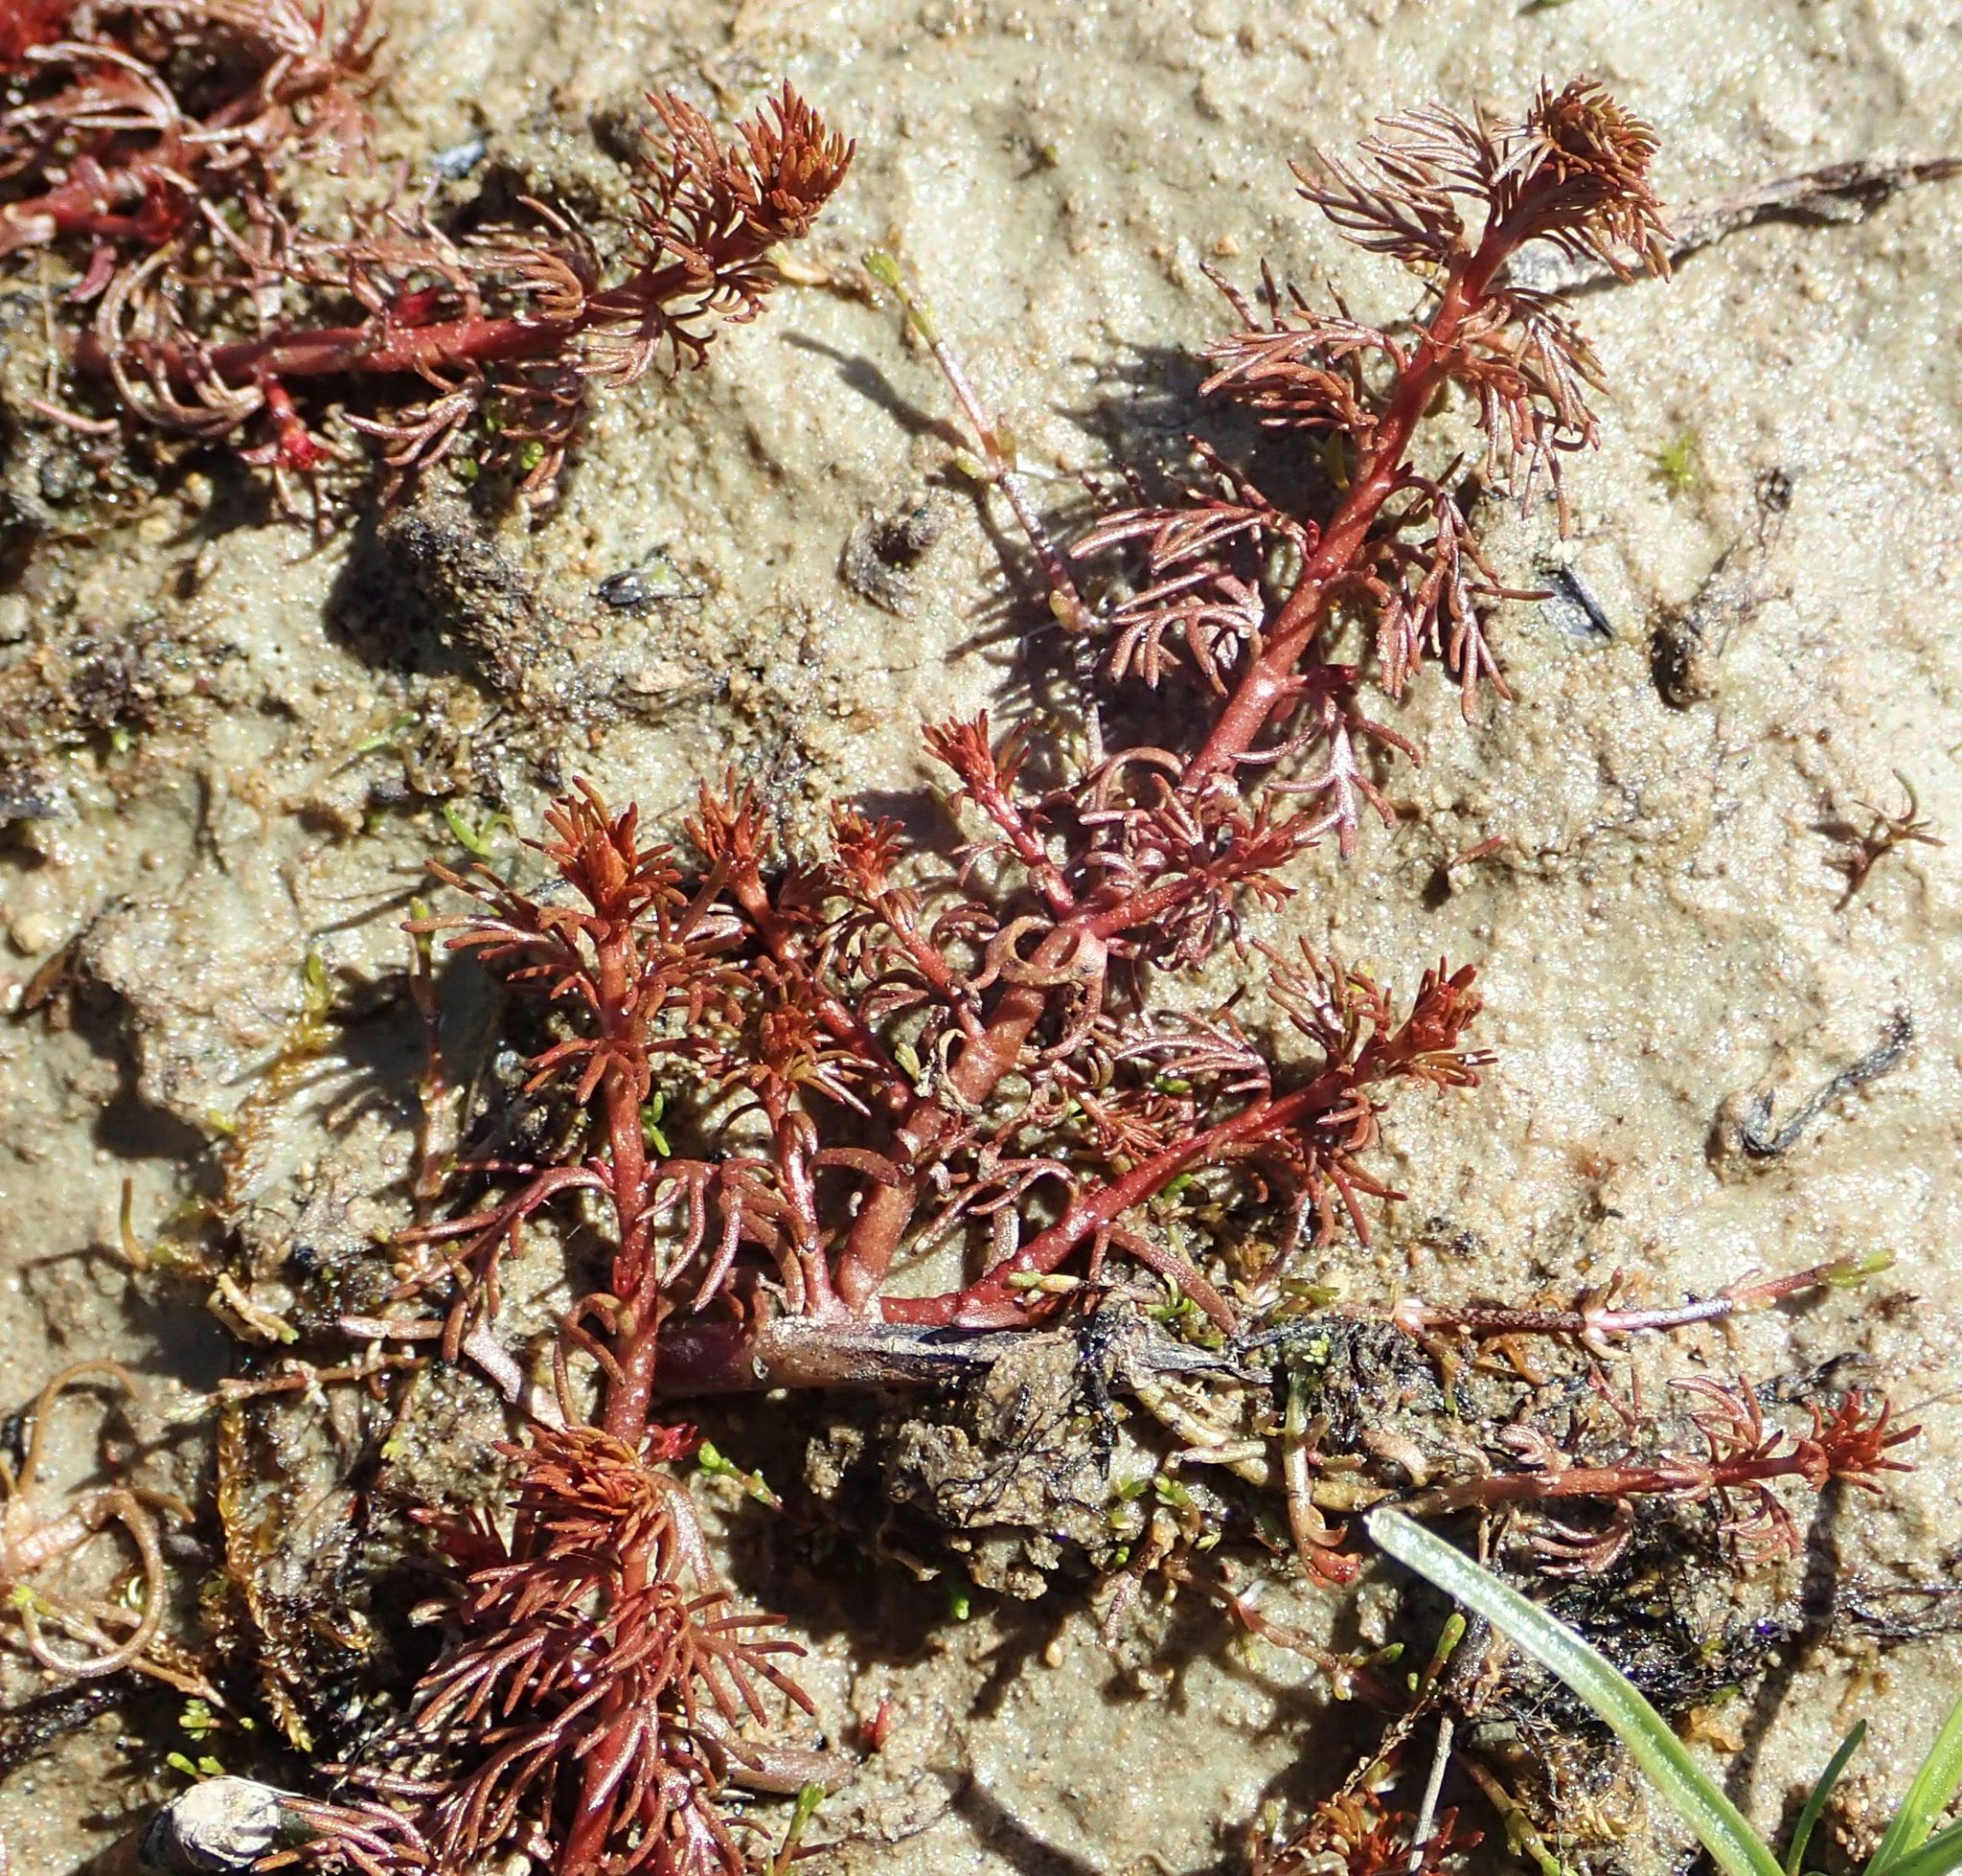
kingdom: Plantae
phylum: Tracheophyta
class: Magnoliopsida
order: Saxifragales
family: Haloragaceae
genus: Myriophyllum
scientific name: Myriophyllum propinquum
